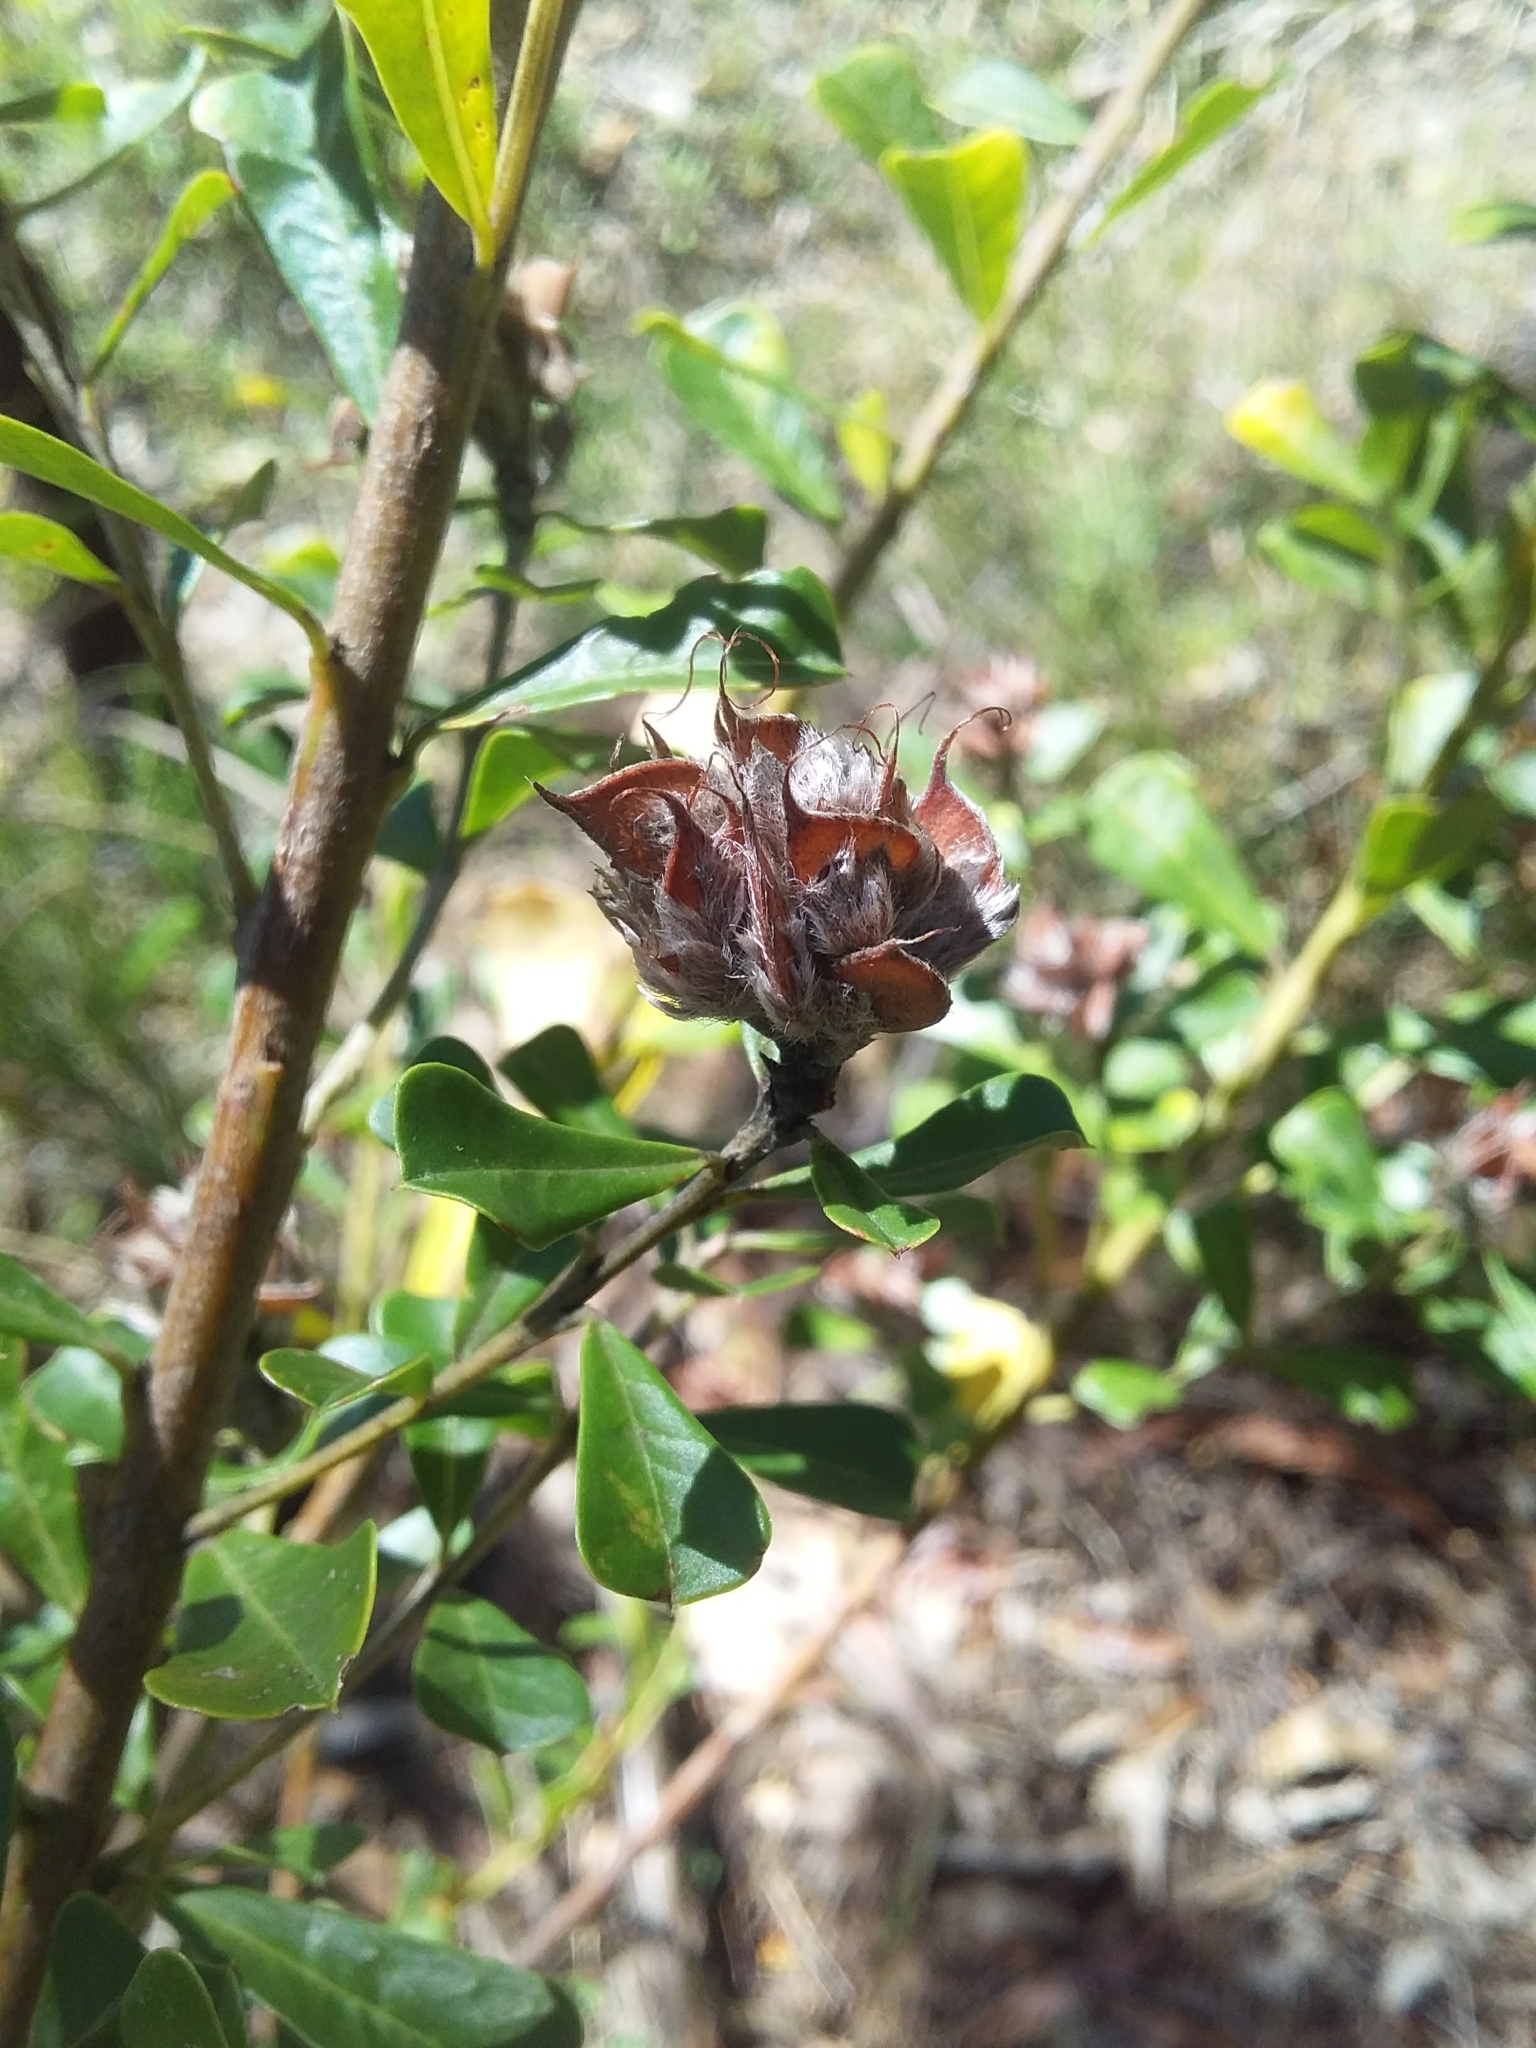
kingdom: Plantae
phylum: Tracheophyta
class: Magnoliopsida
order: Fabales
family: Fabaceae
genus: Pultenaea
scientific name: Pultenaea daphnoides
